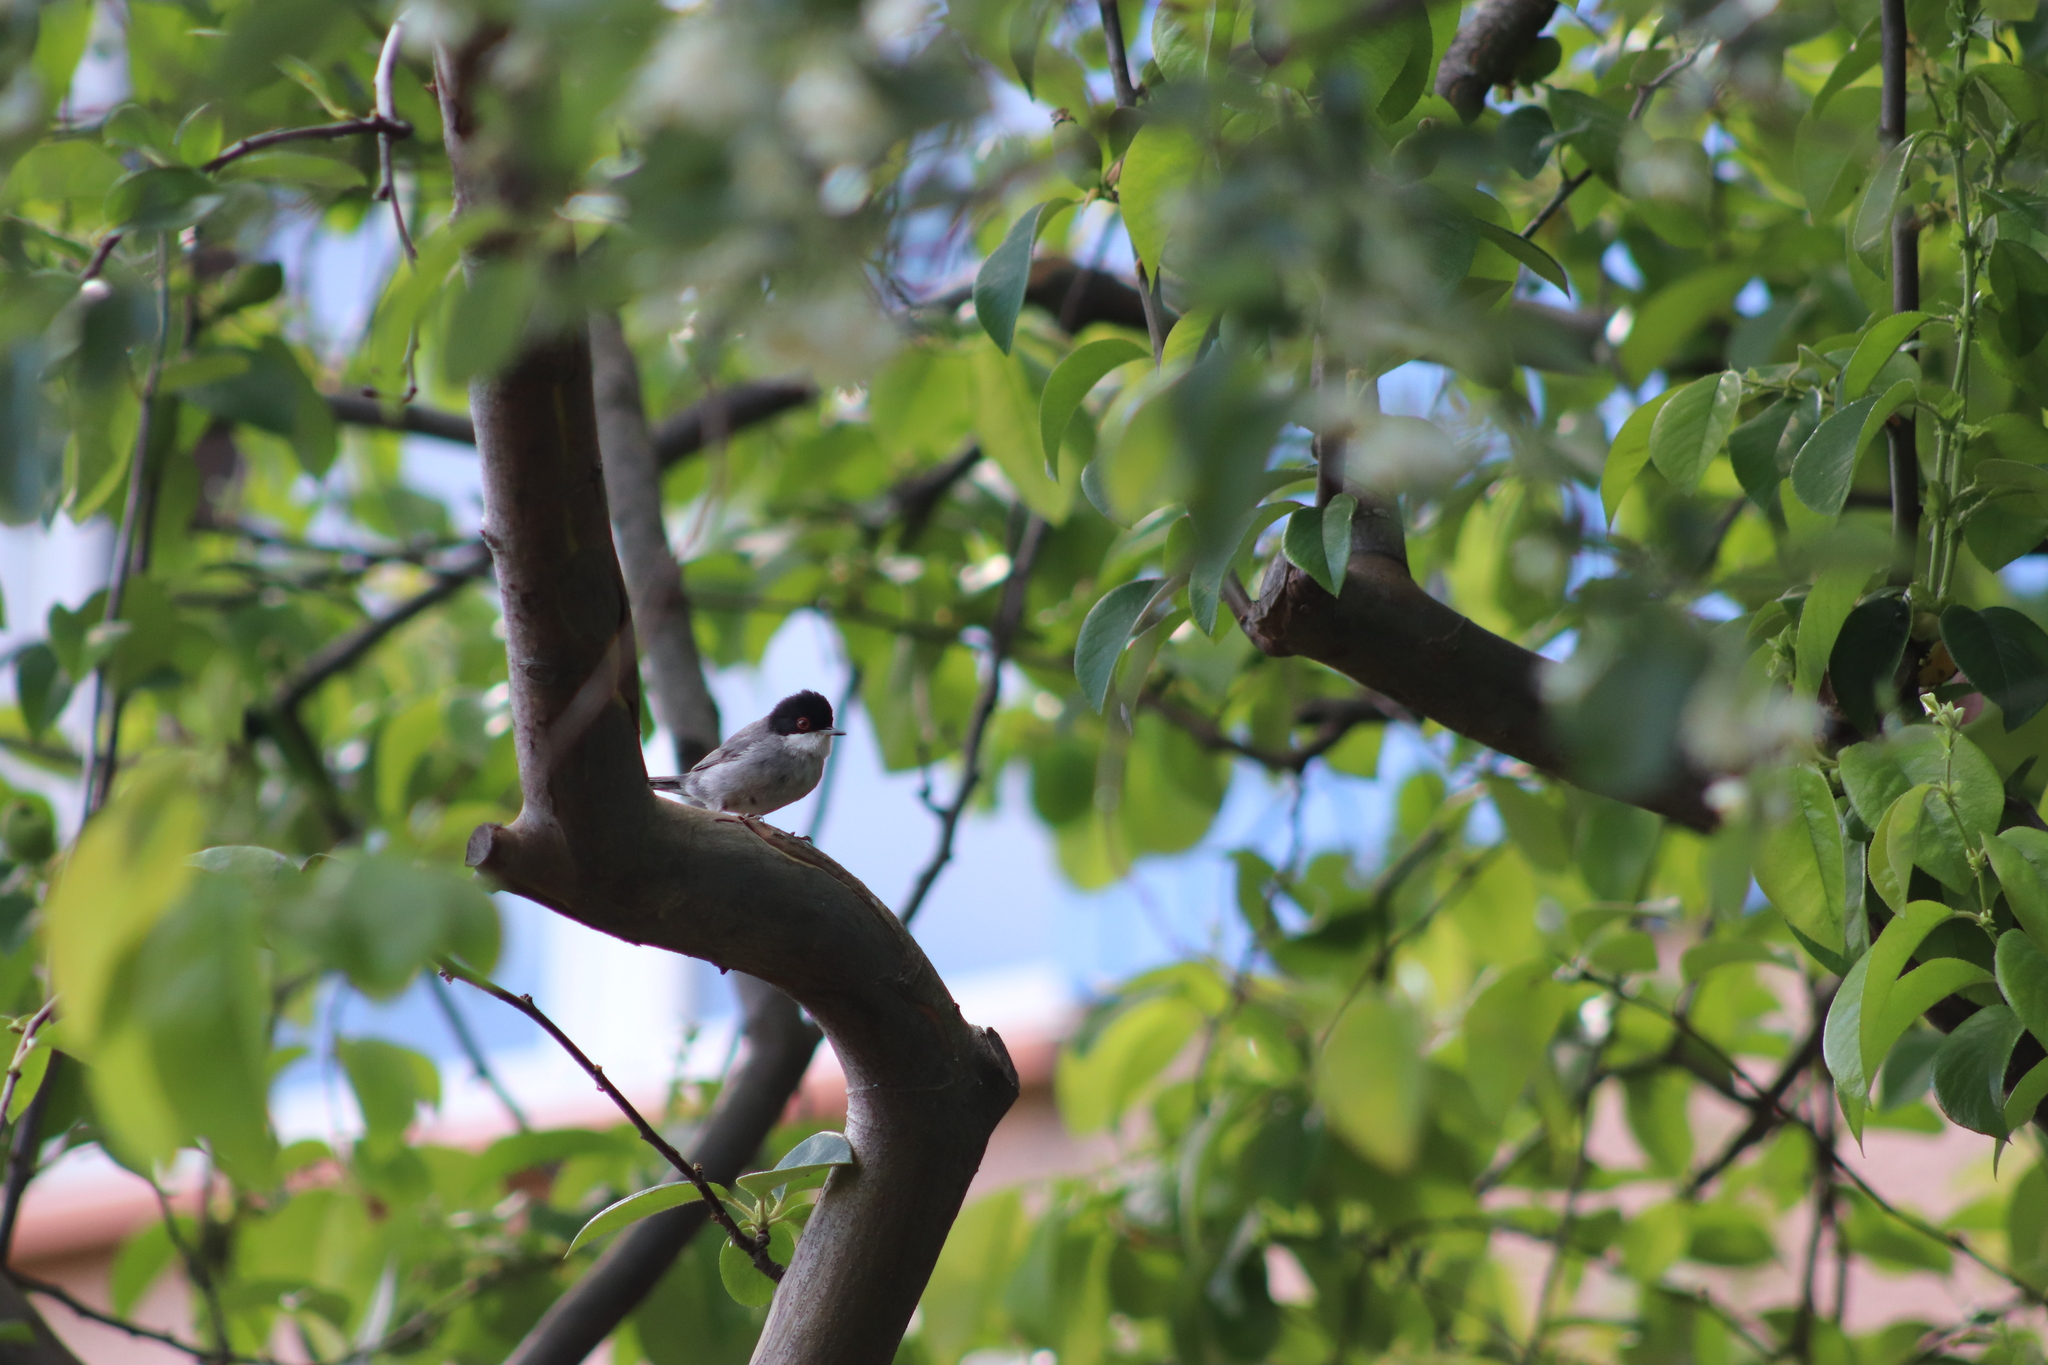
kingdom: Animalia
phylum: Chordata
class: Aves
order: Passeriformes
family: Sylviidae
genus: Curruca
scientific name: Curruca melanocephala
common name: Sardinian warbler
